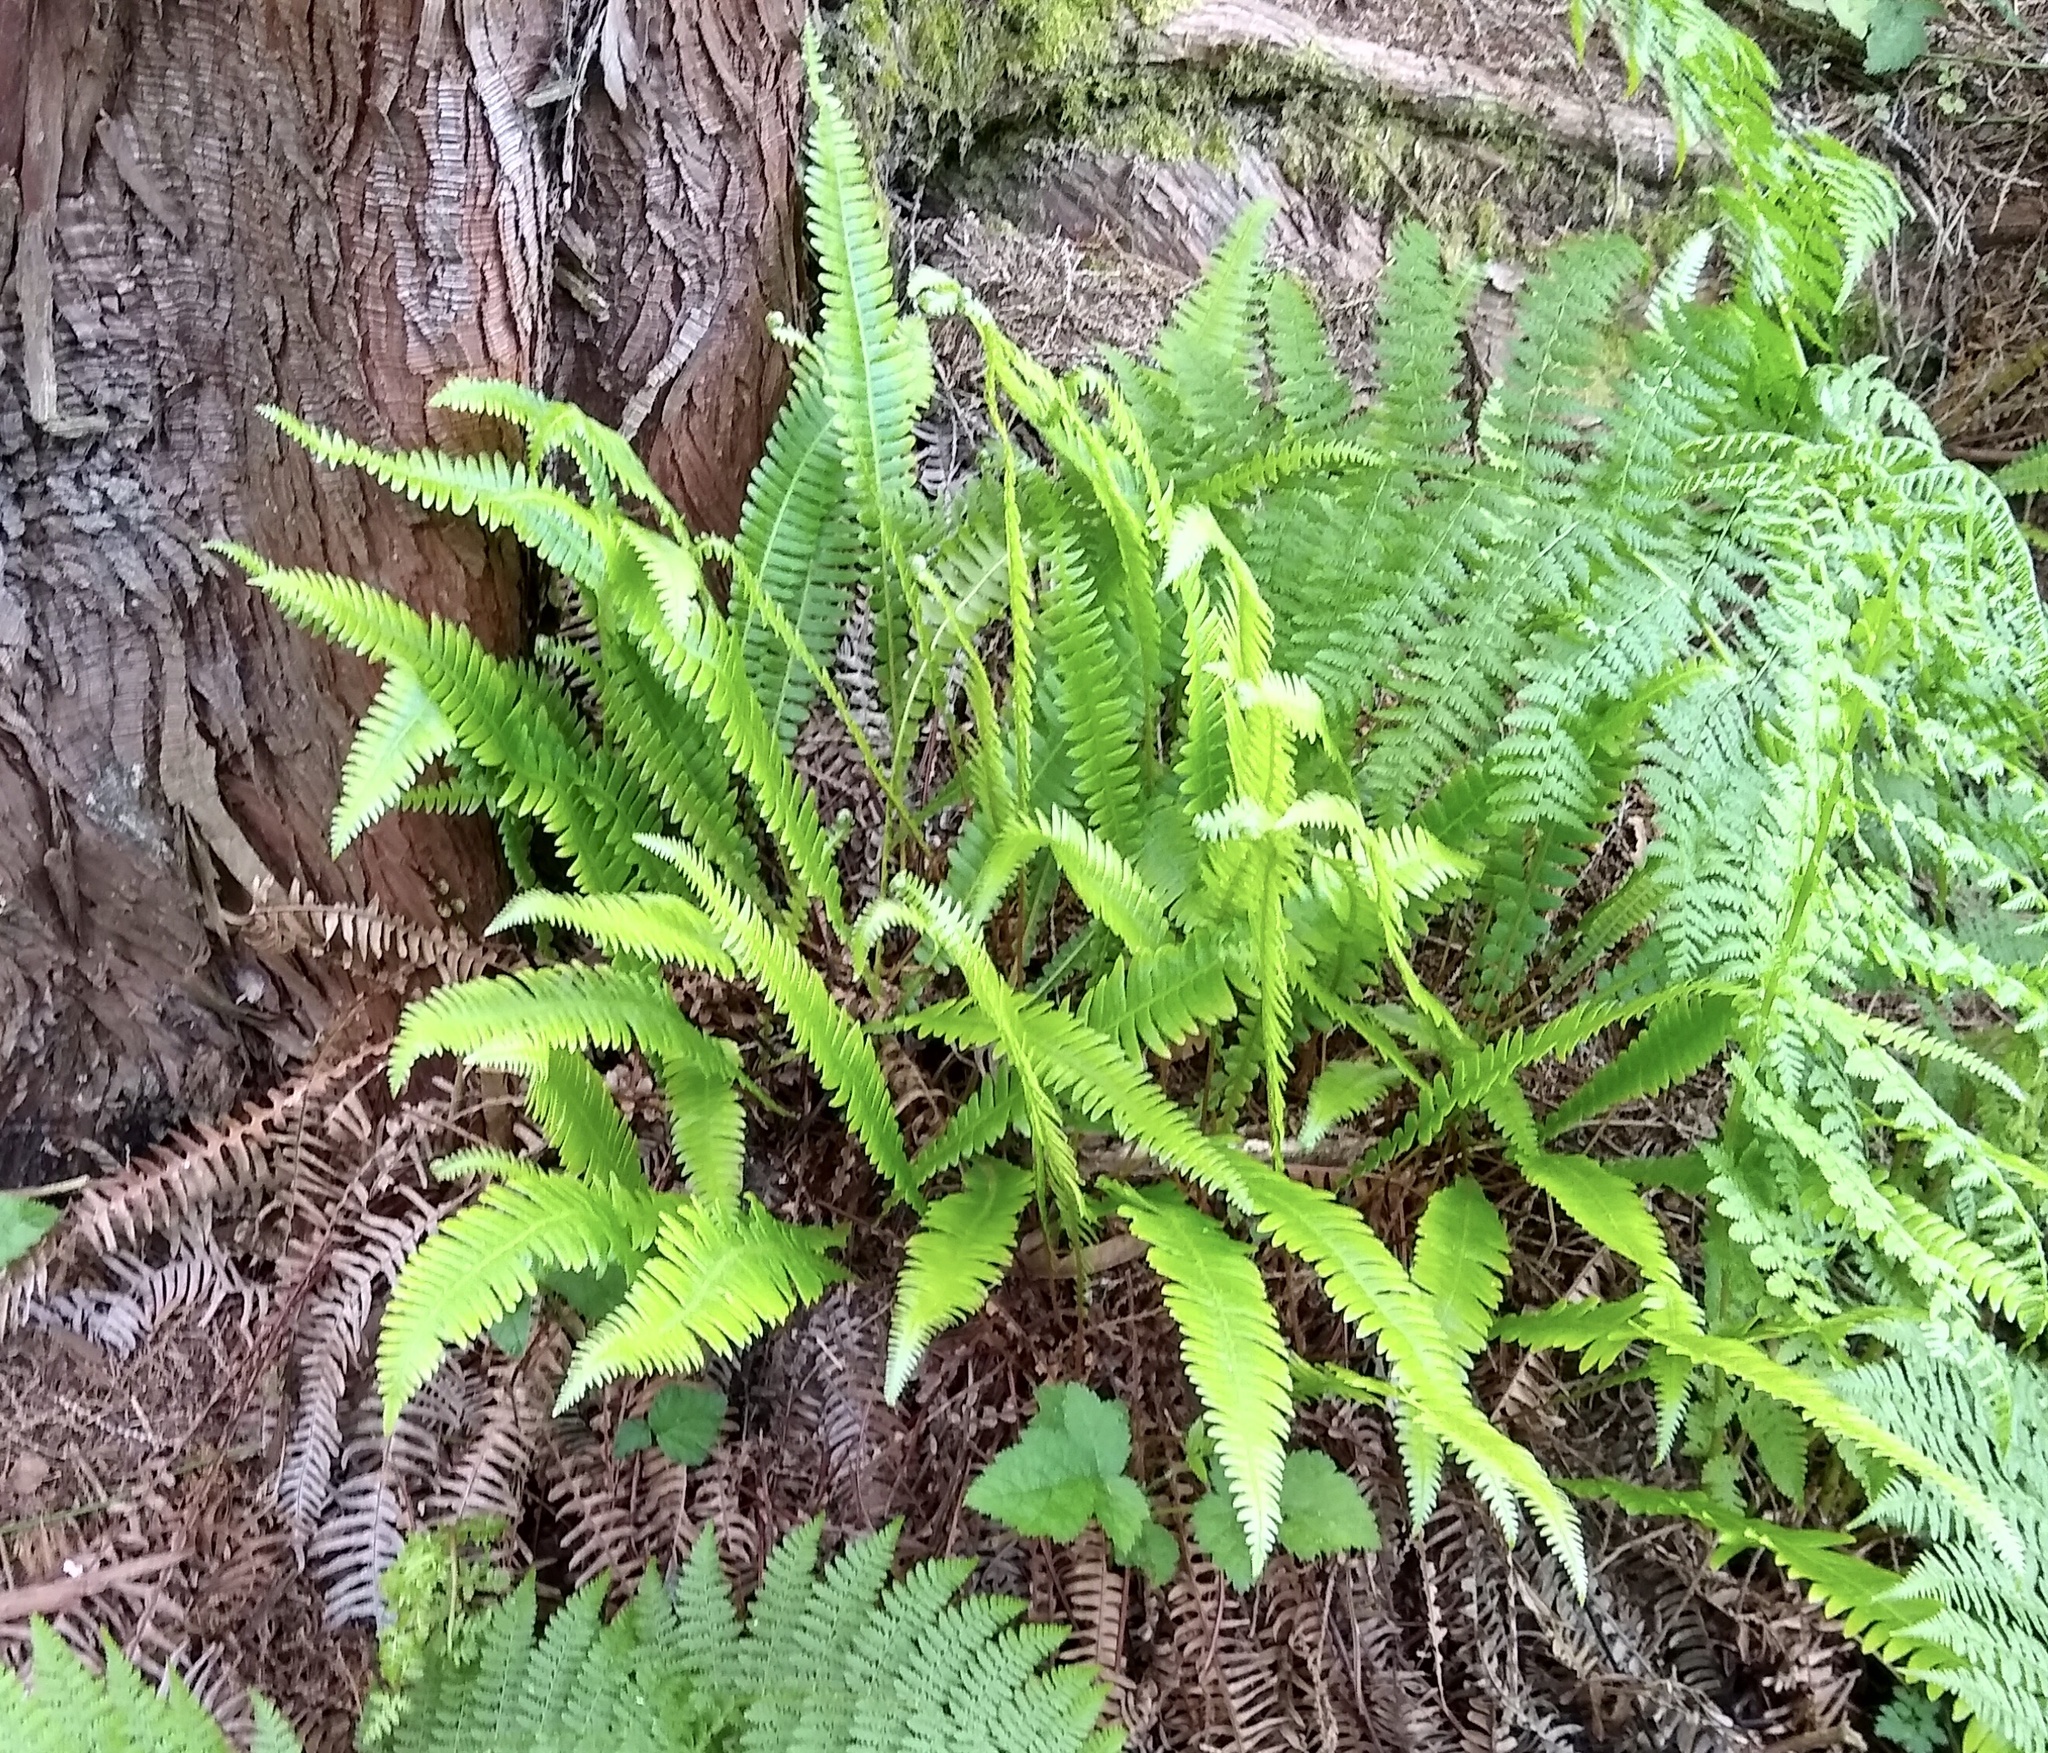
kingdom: Plantae
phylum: Tracheophyta
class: Polypodiopsida
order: Polypodiales
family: Blechnaceae
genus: Struthiopteris
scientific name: Struthiopteris spicant
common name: Deer fern
